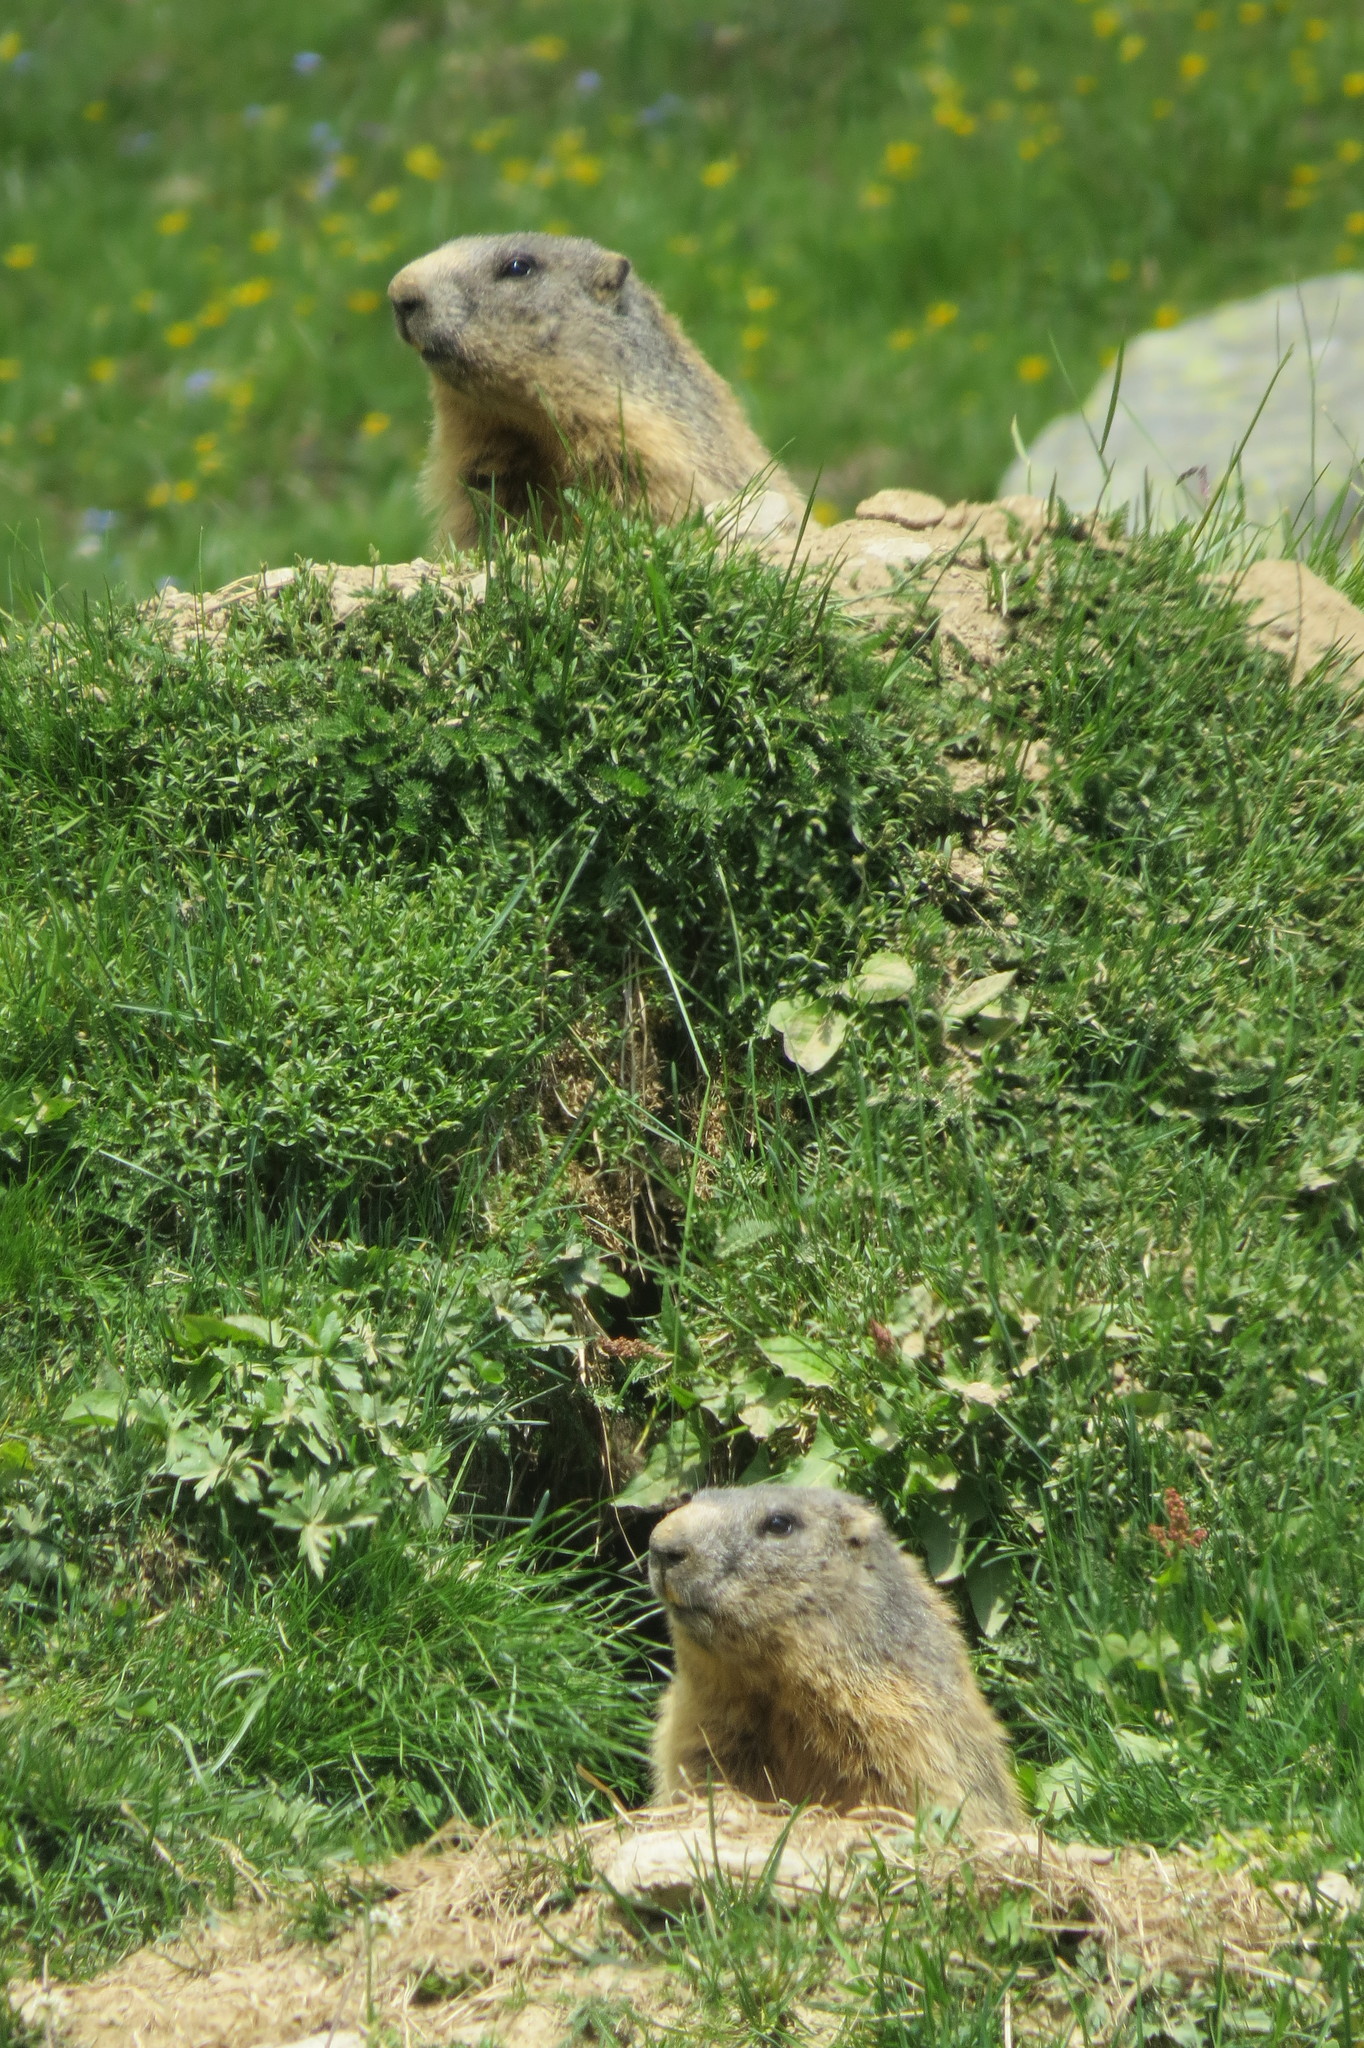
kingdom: Animalia
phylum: Chordata
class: Mammalia
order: Rodentia
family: Sciuridae
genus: Marmota
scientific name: Marmota marmota
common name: Alpine marmot
